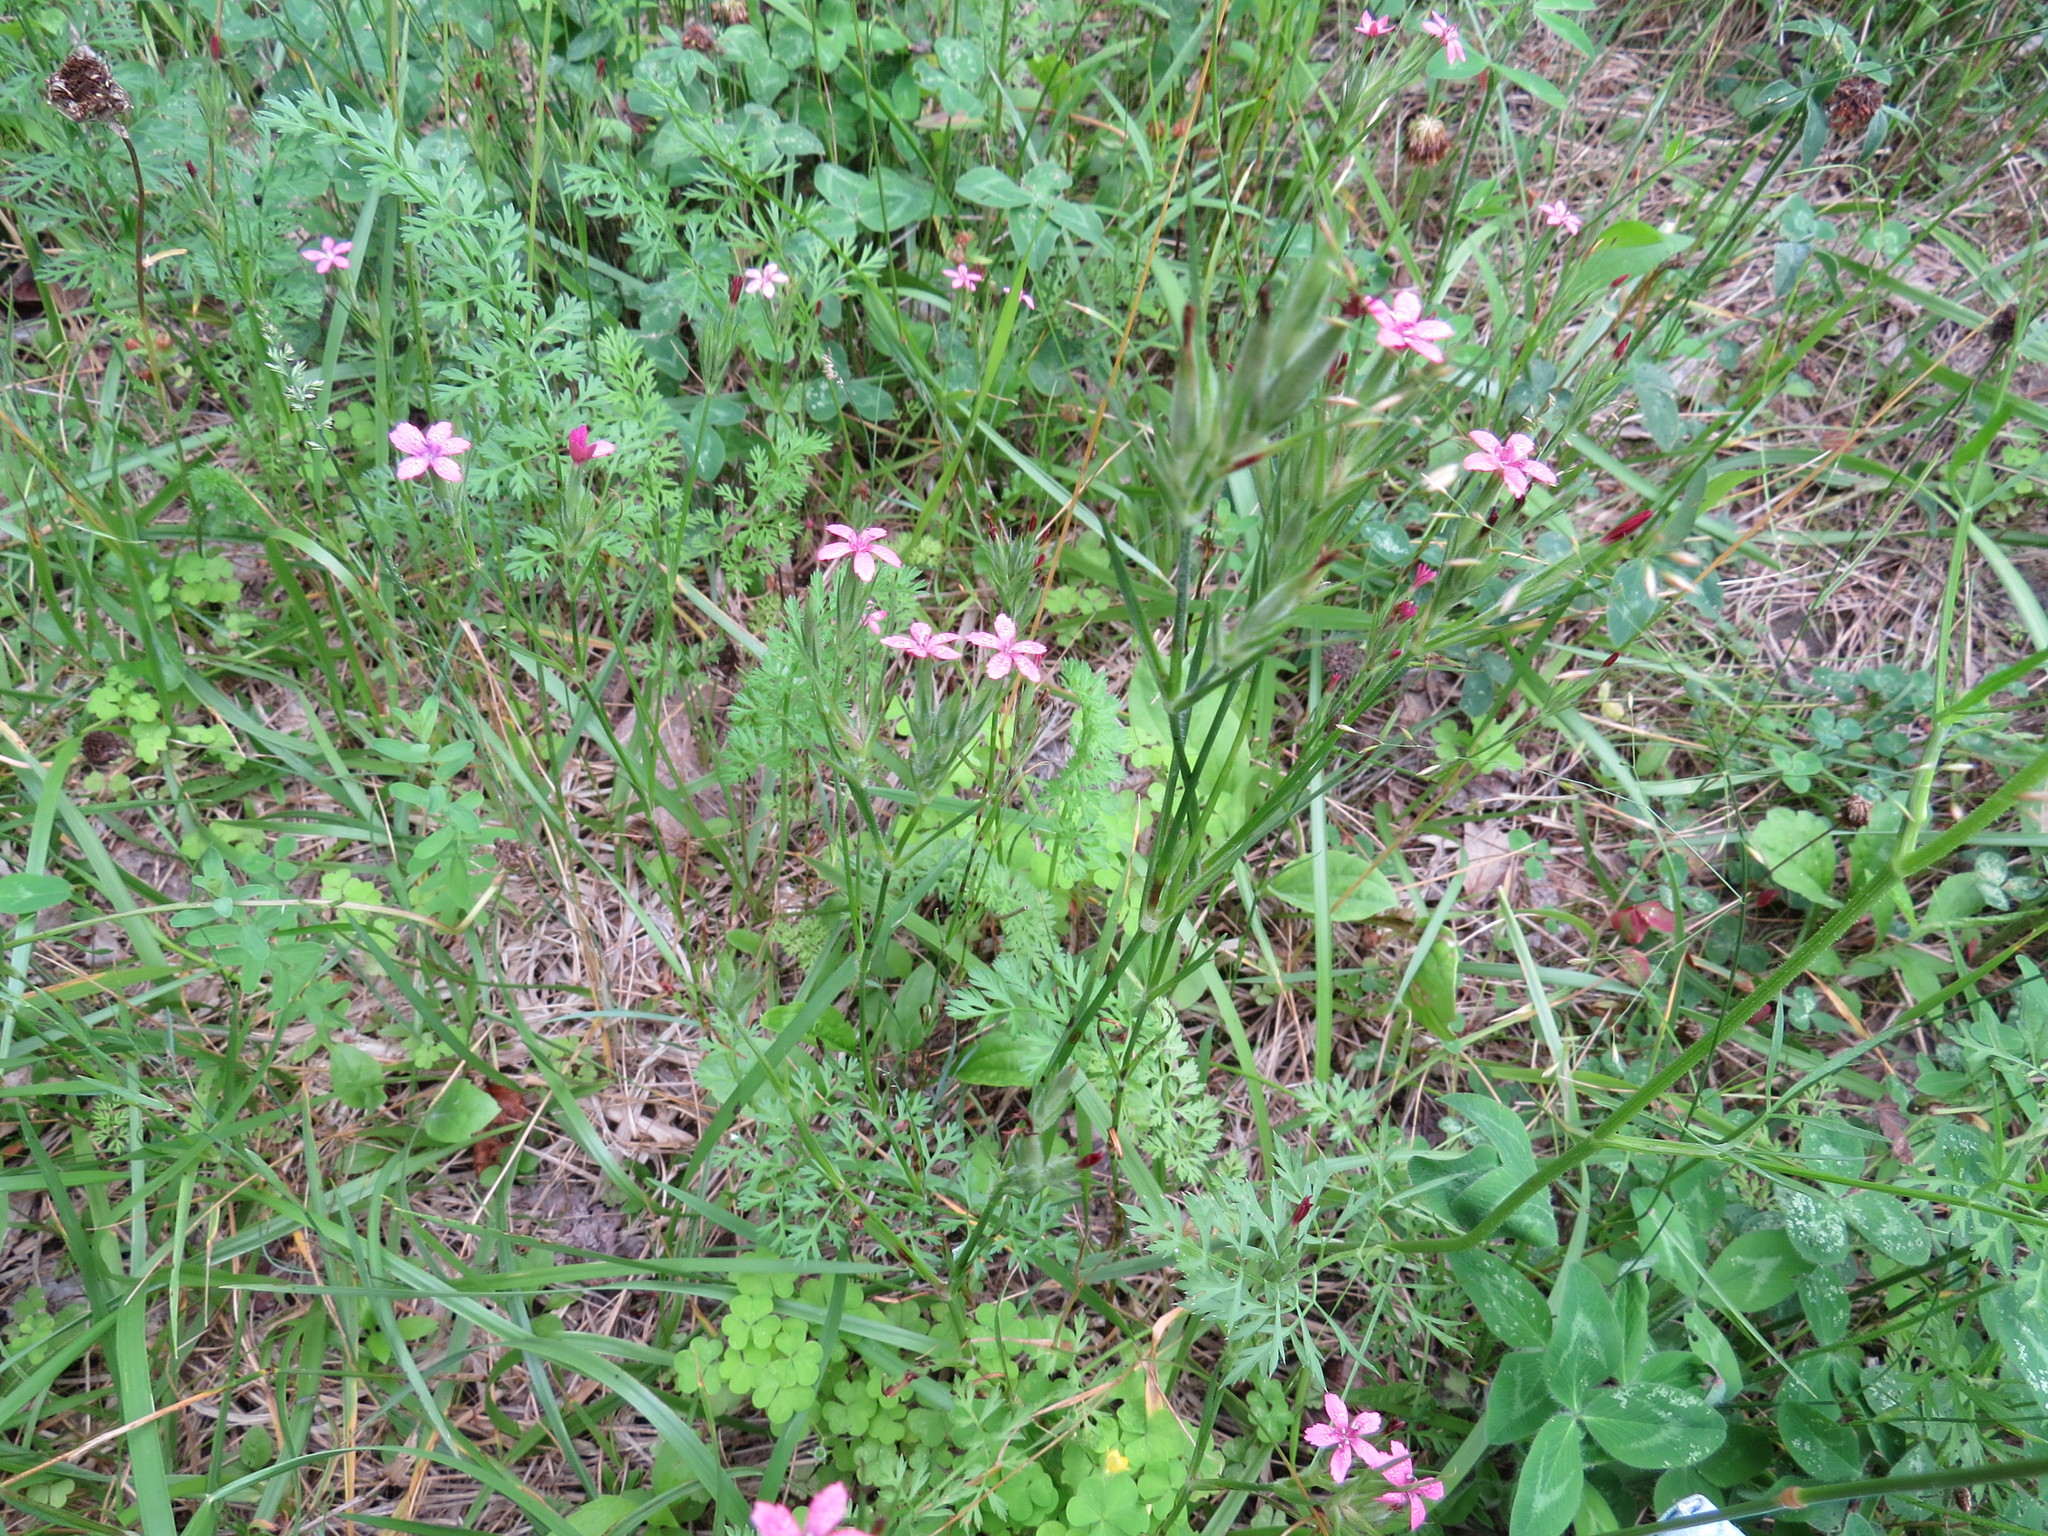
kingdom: Plantae
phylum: Tracheophyta
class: Magnoliopsida
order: Caryophyllales
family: Caryophyllaceae
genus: Dianthus
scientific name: Dianthus armeria
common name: Deptford pink
